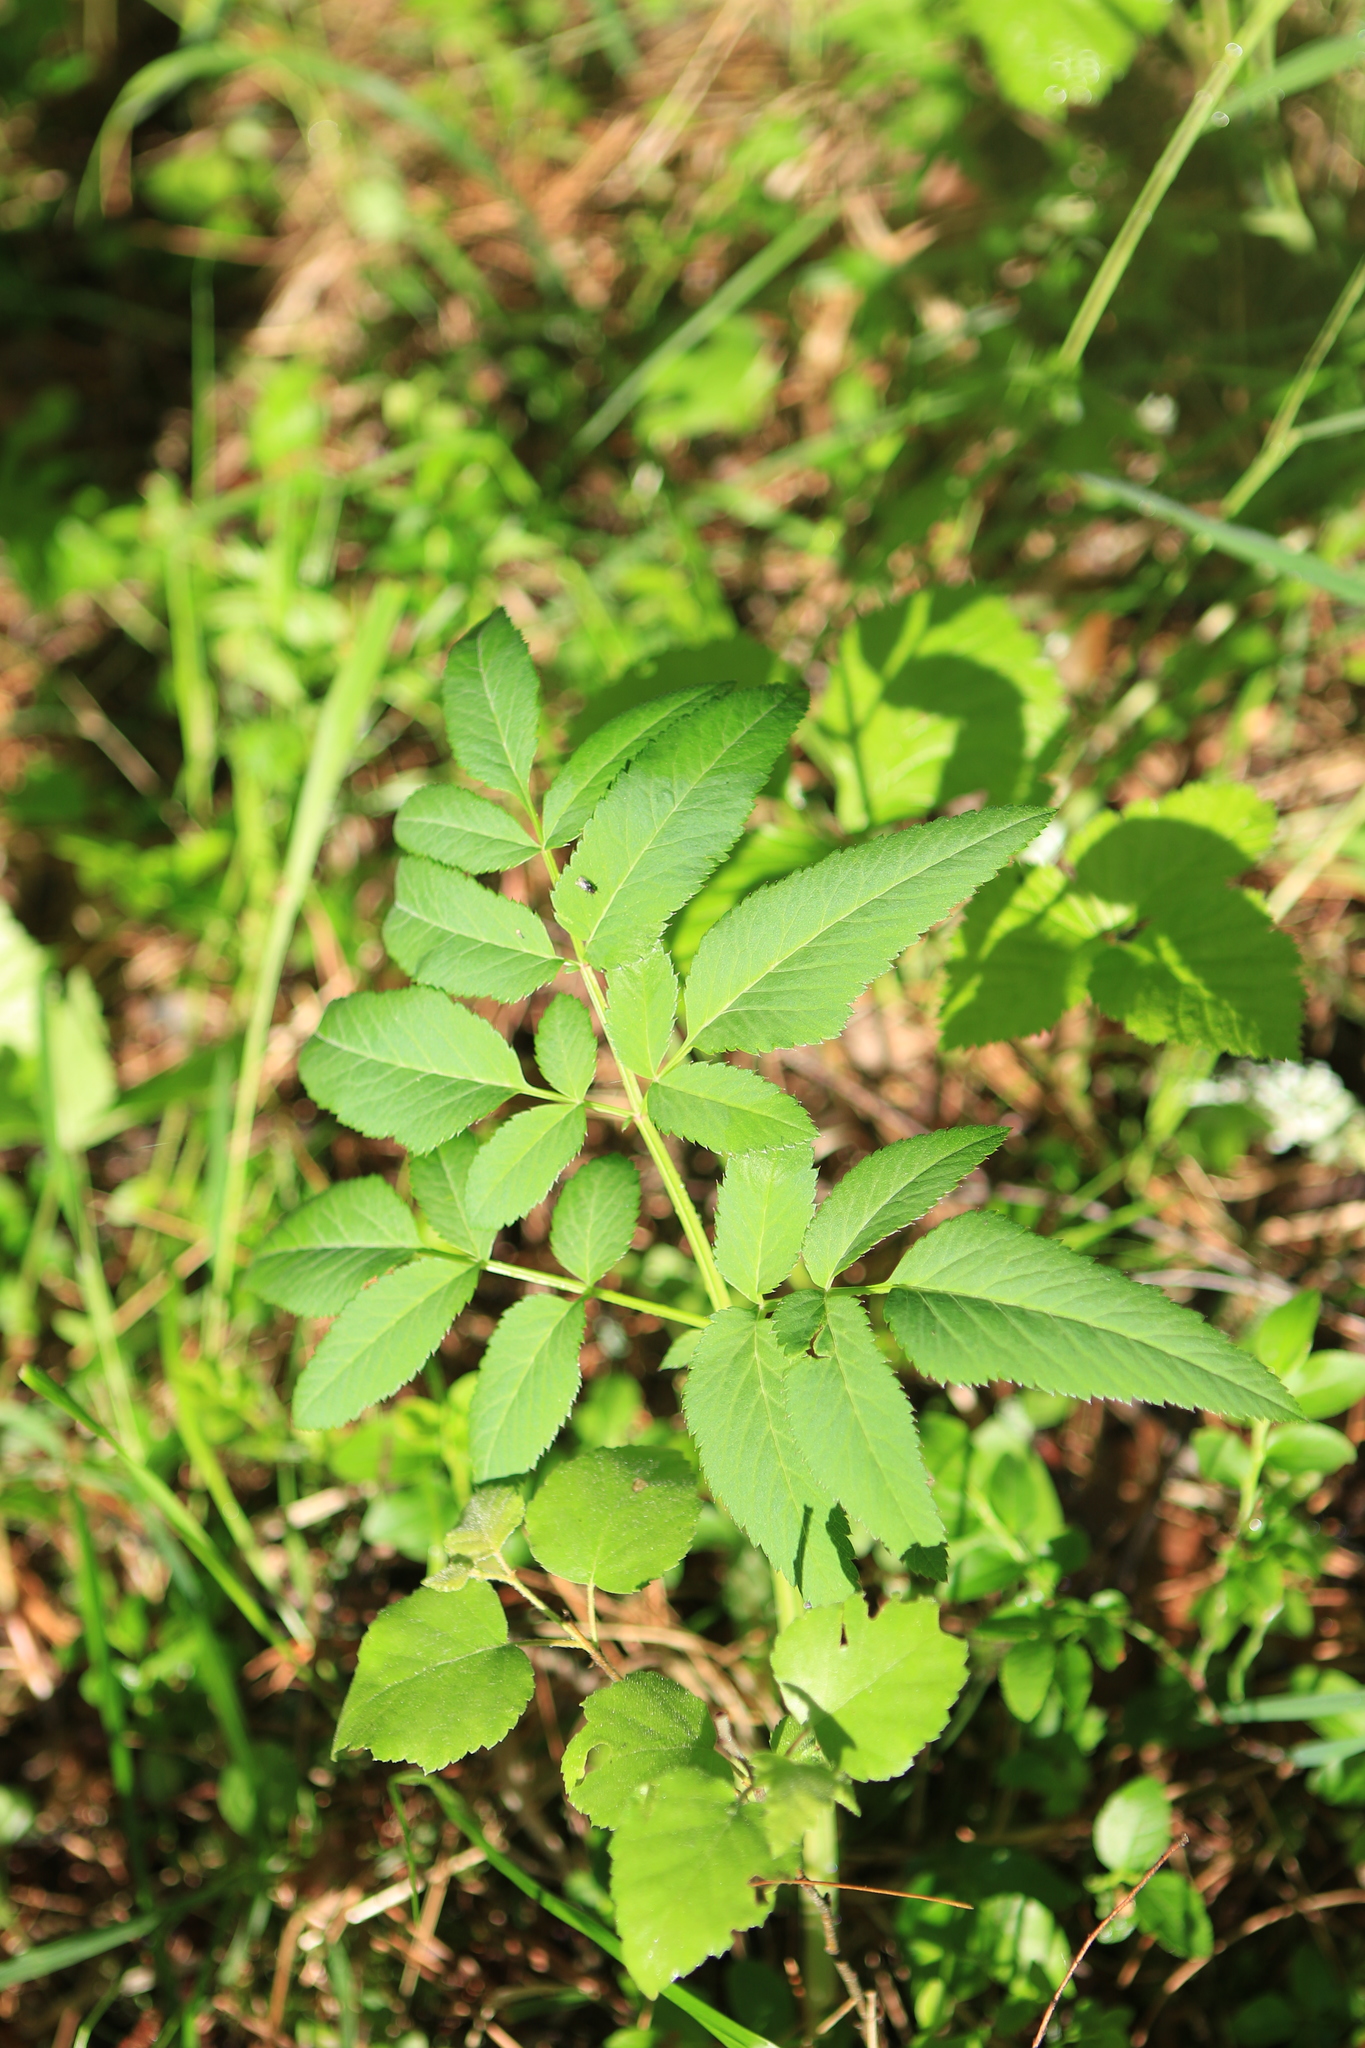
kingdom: Plantae
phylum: Tracheophyta
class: Magnoliopsida
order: Apiales
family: Apiaceae
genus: Angelica
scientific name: Angelica sylvestris
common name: Wild angelica
